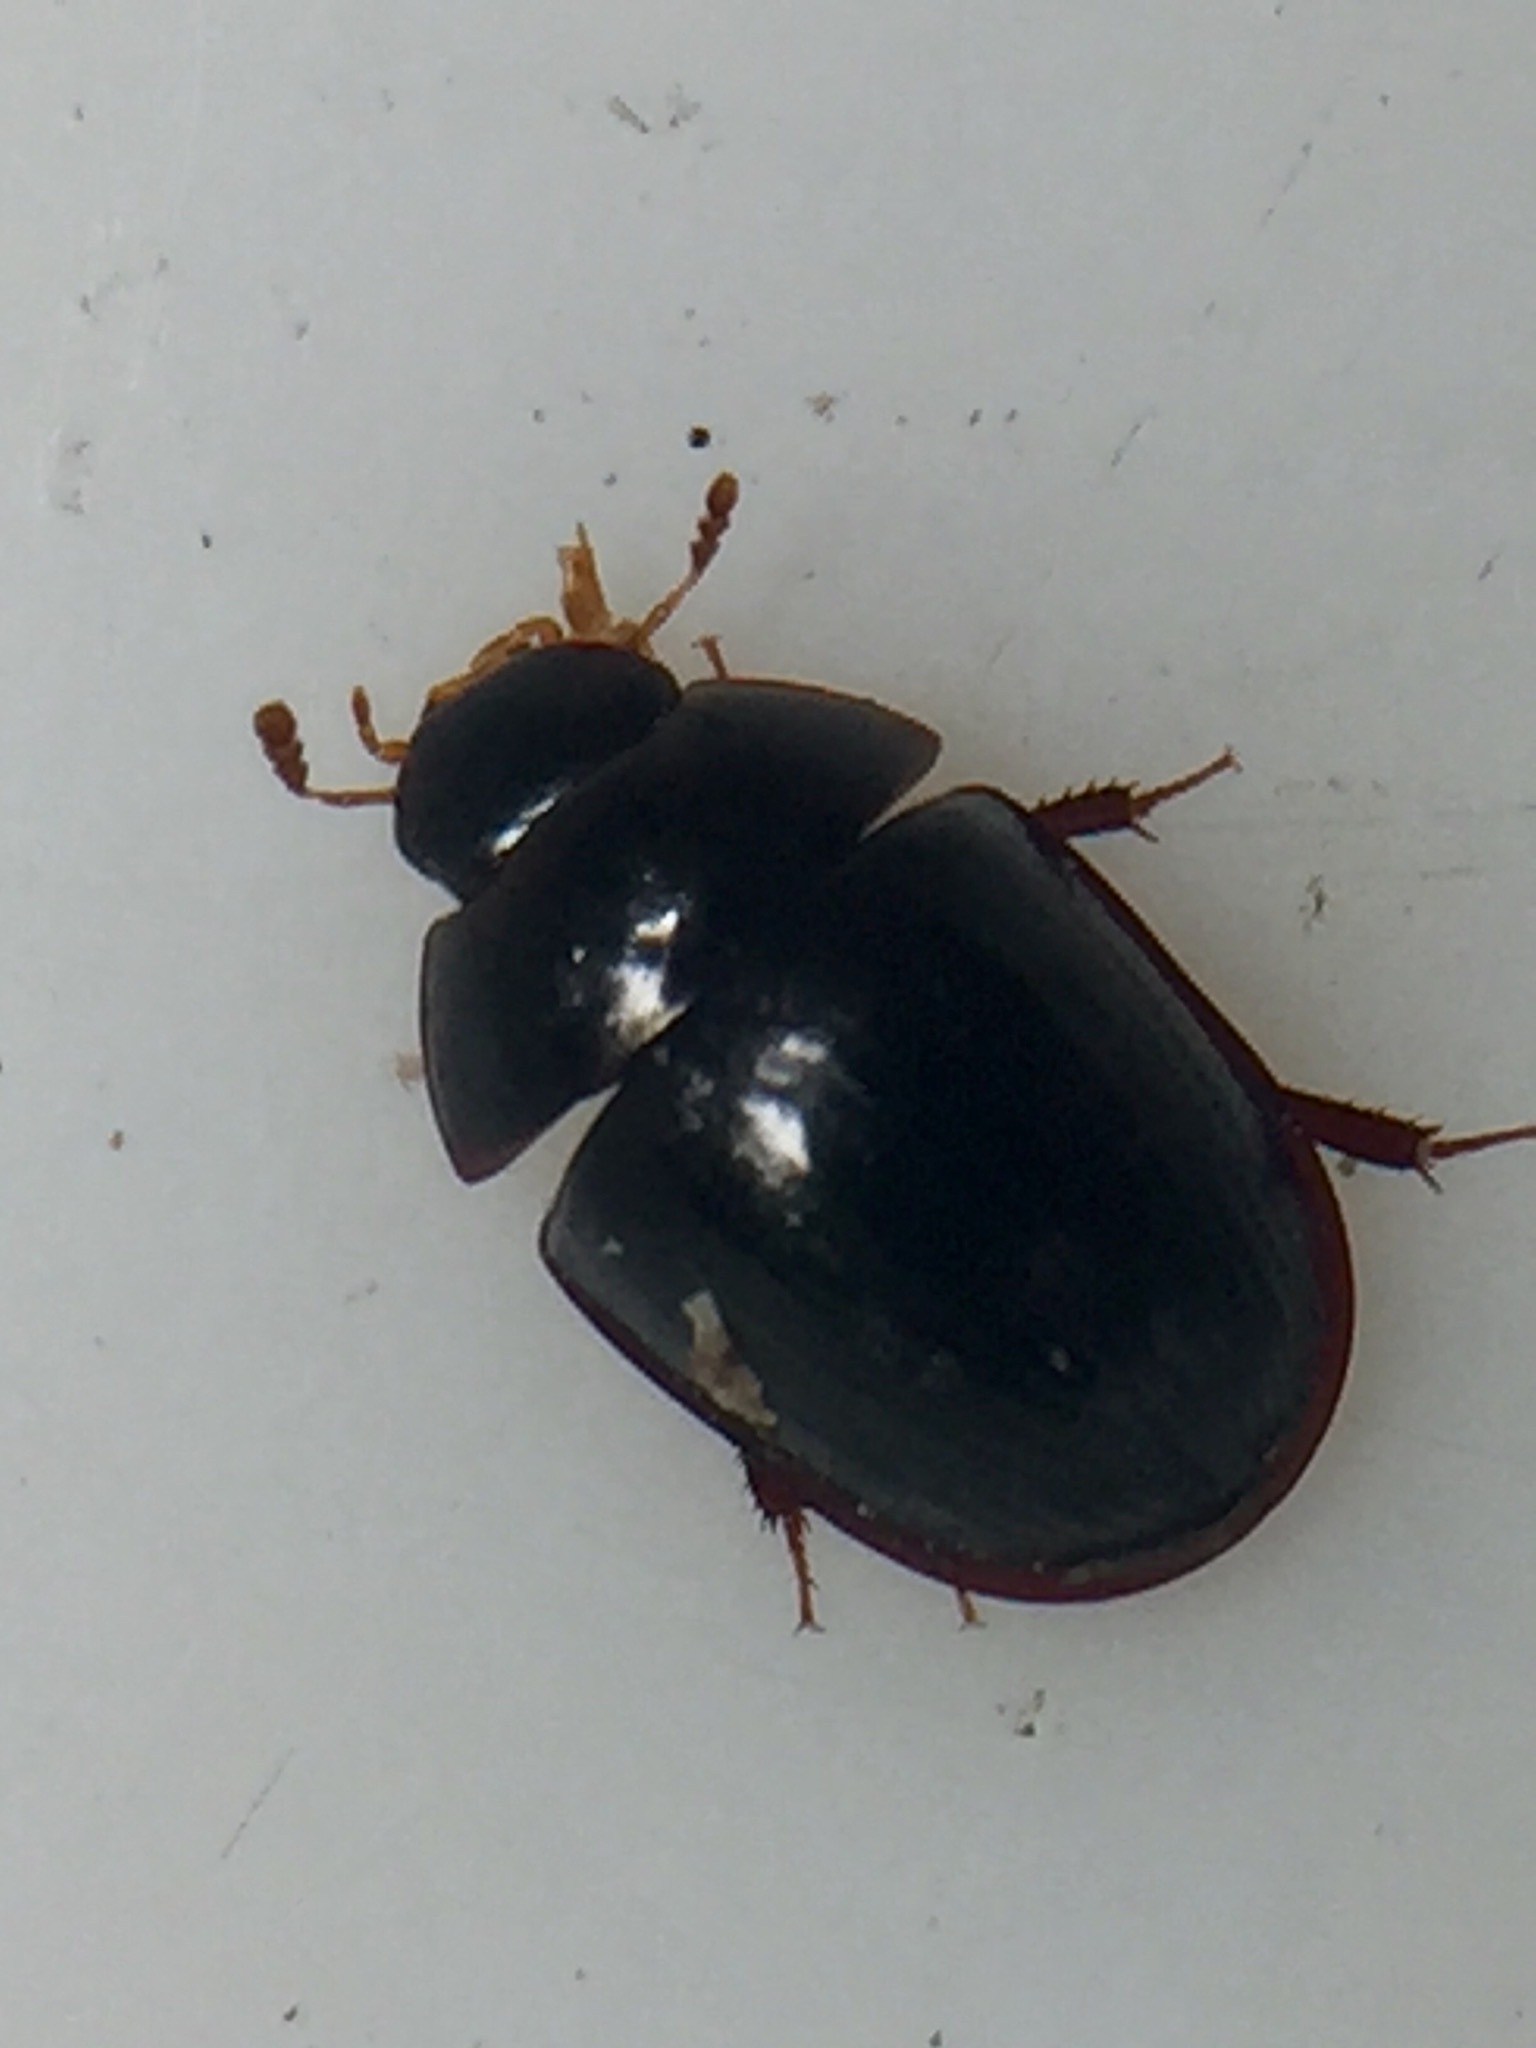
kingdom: Animalia
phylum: Arthropoda
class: Insecta
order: Coleoptera
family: Hydrophilidae
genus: Dactylosternum
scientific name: Dactylosternum marginale
